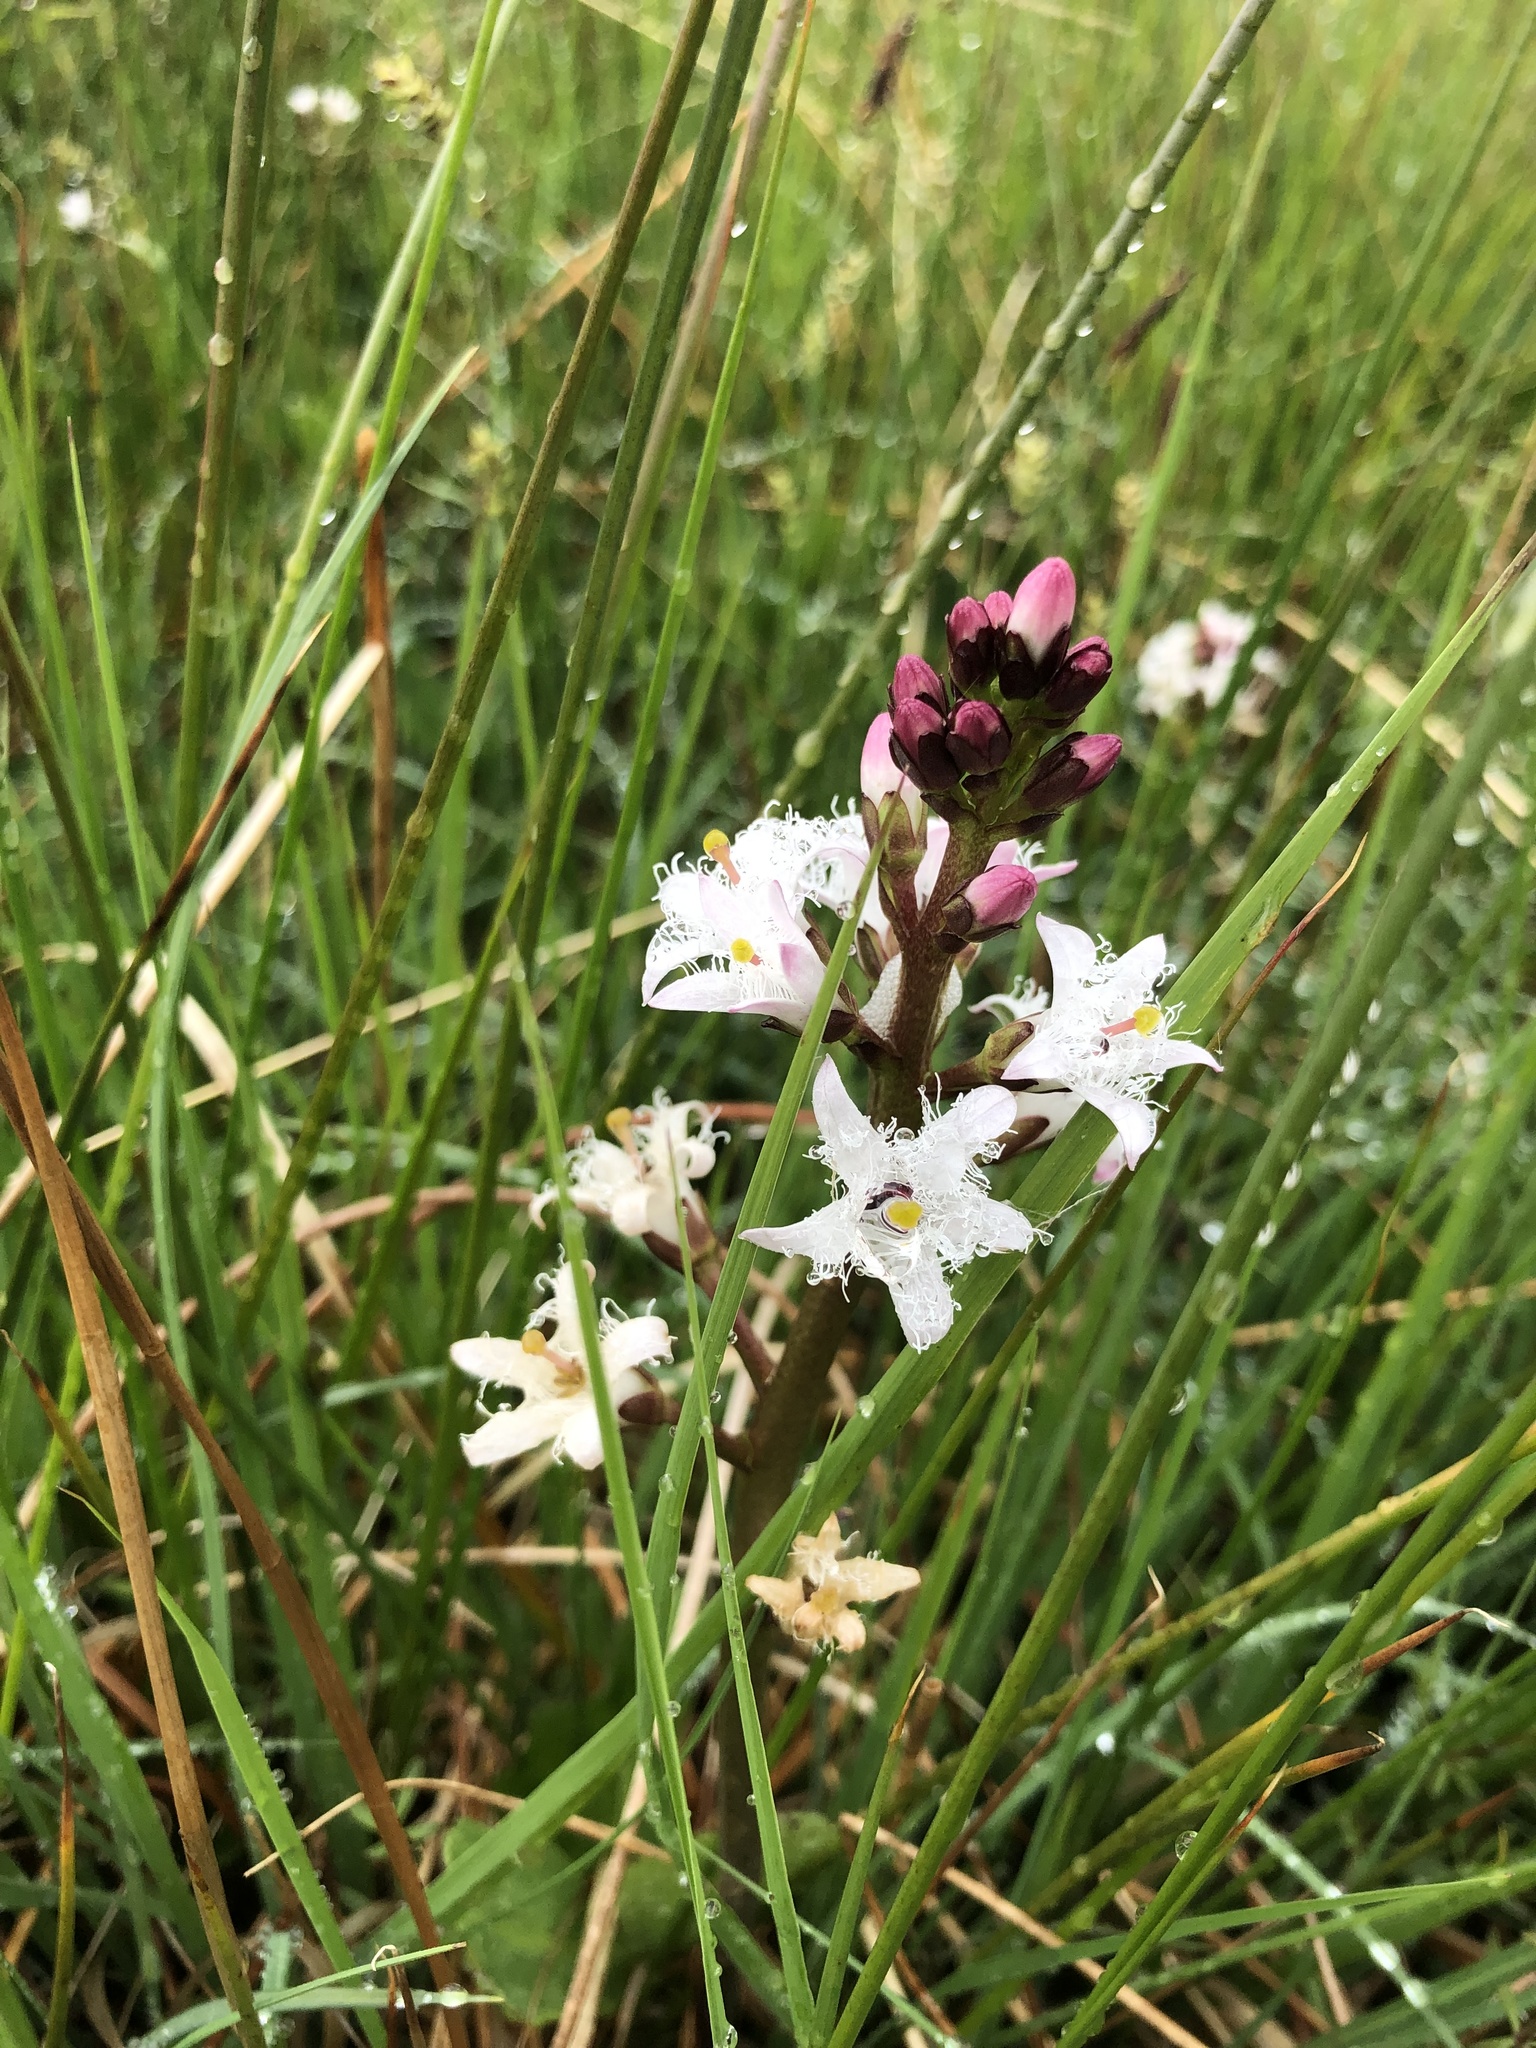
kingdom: Plantae
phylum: Tracheophyta
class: Magnoliopsida
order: Asterales
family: Menyanthaceae
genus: Menyanthes
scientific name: Menyanthes trifoliata
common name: Bogbean
